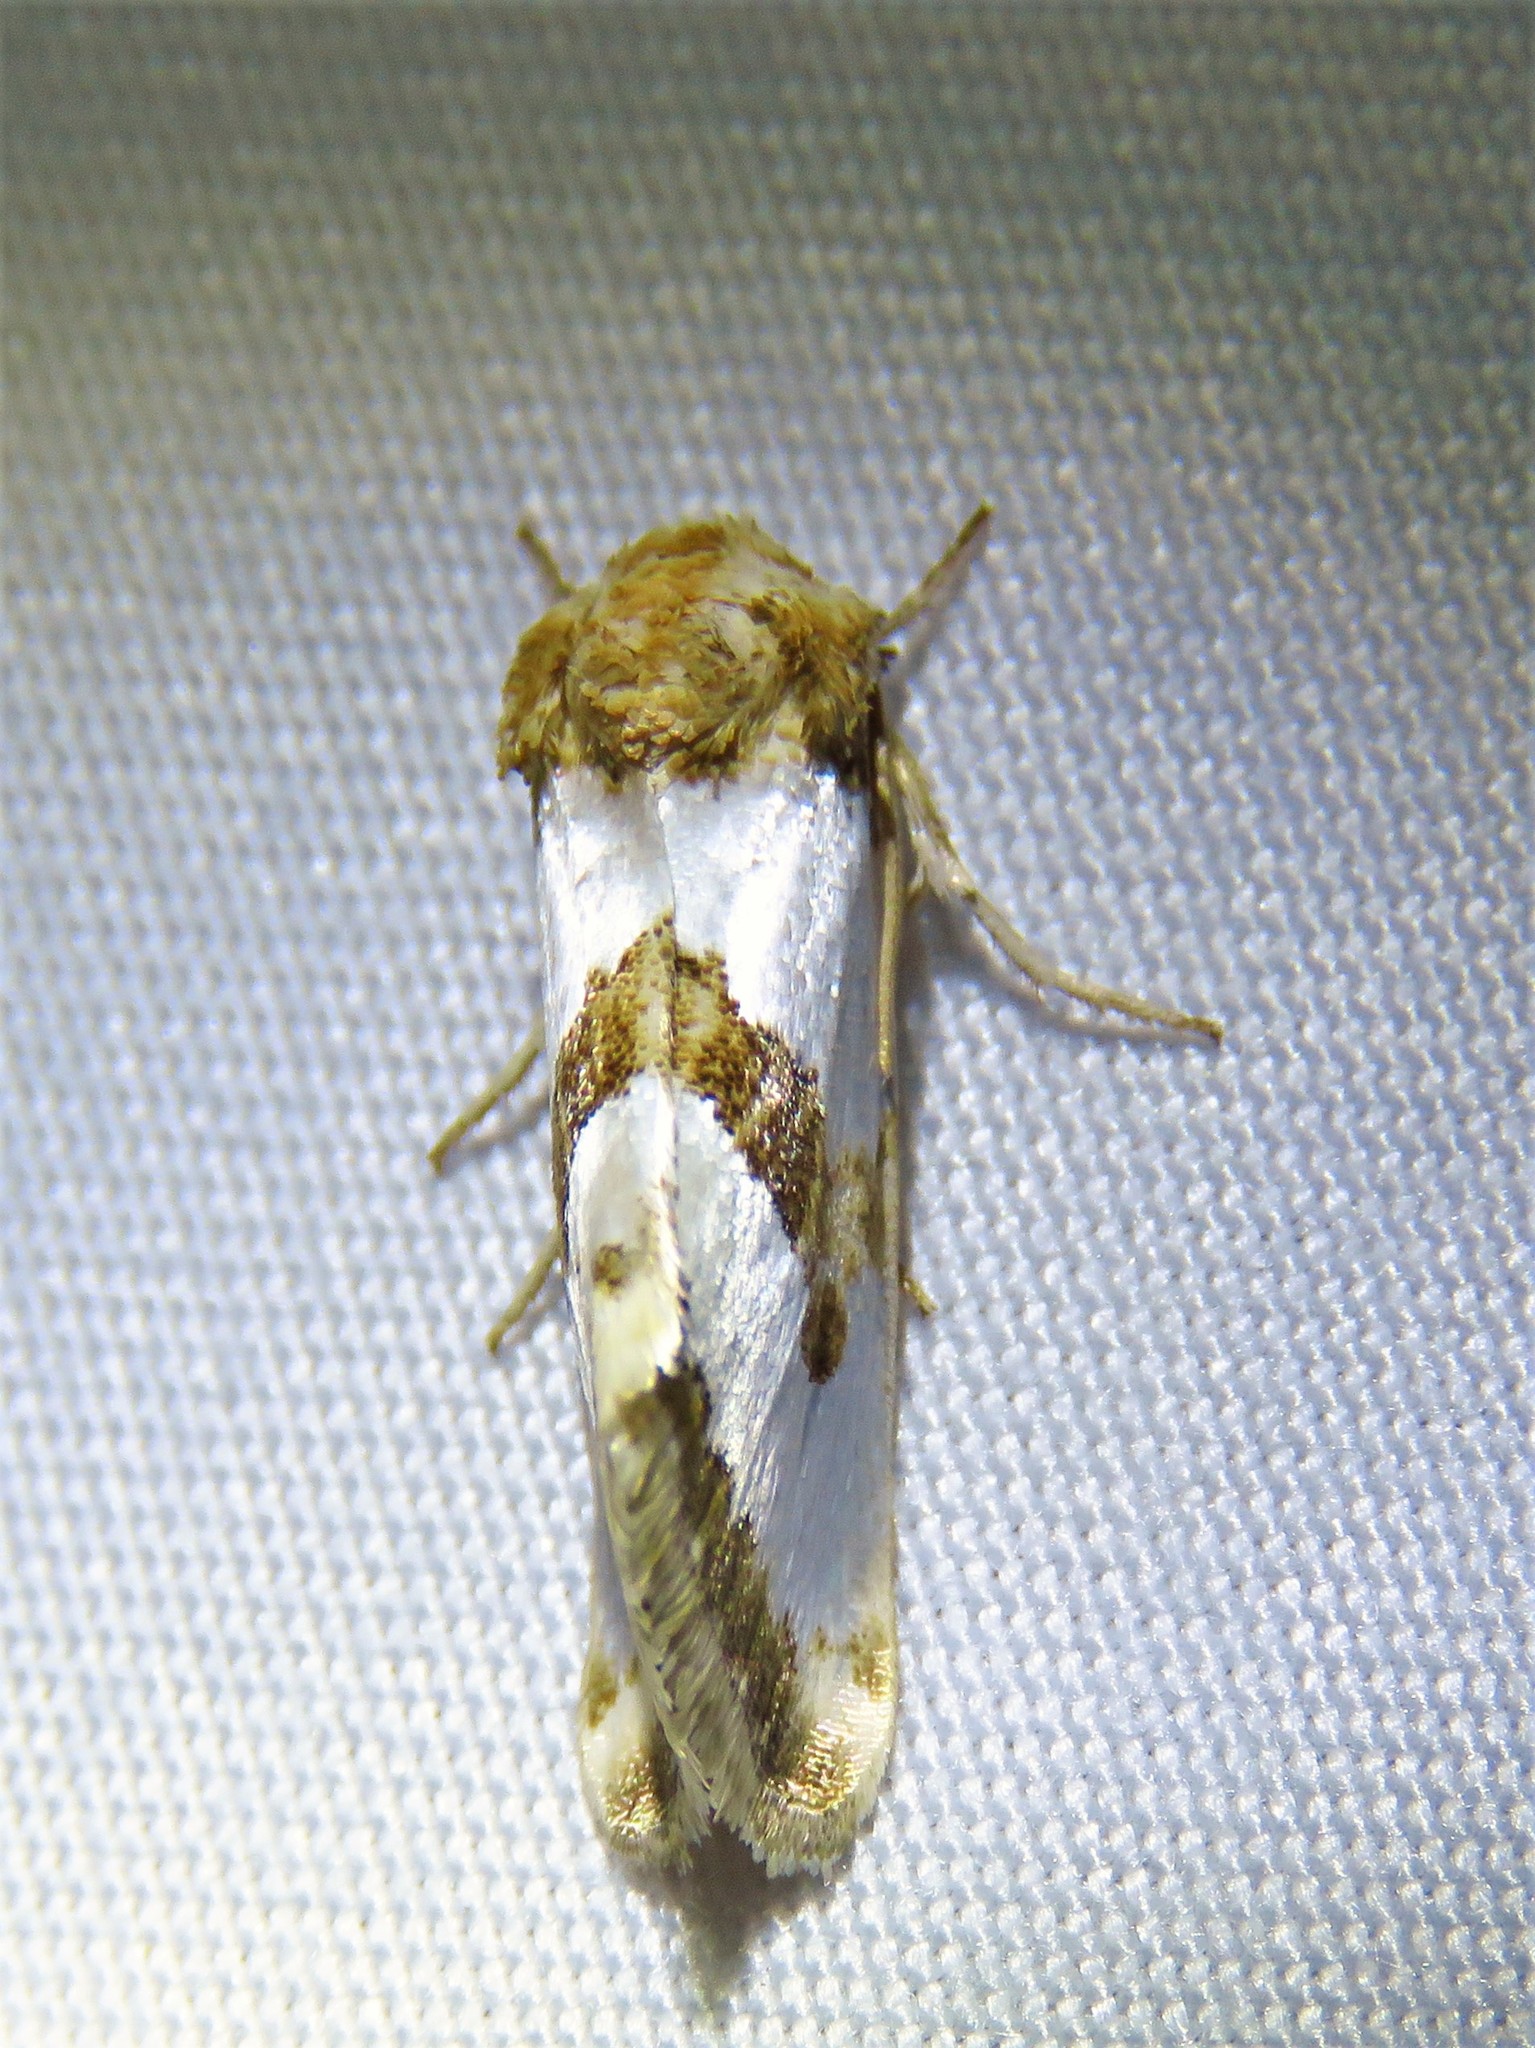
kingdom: Animalia
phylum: Arthropoda
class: Insecta
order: Lepidoptera
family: Noctuidae
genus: Schinia
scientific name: Schinia chrysellus
